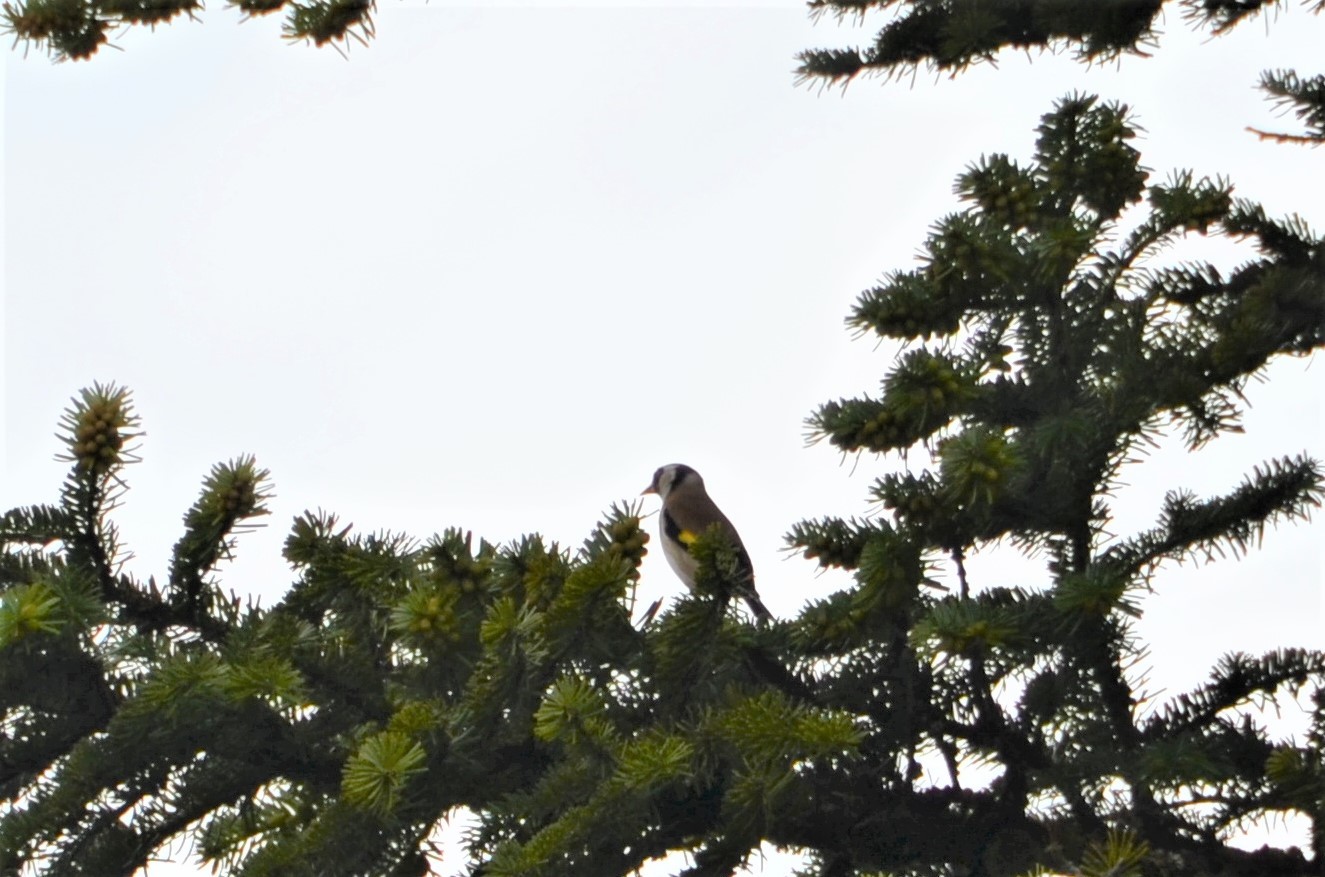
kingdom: Animalia
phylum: Chordata
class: Aves
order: Passeriformes
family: Fringillidae
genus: Carduelis
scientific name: Carduelis carduelis
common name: European goldfinch
